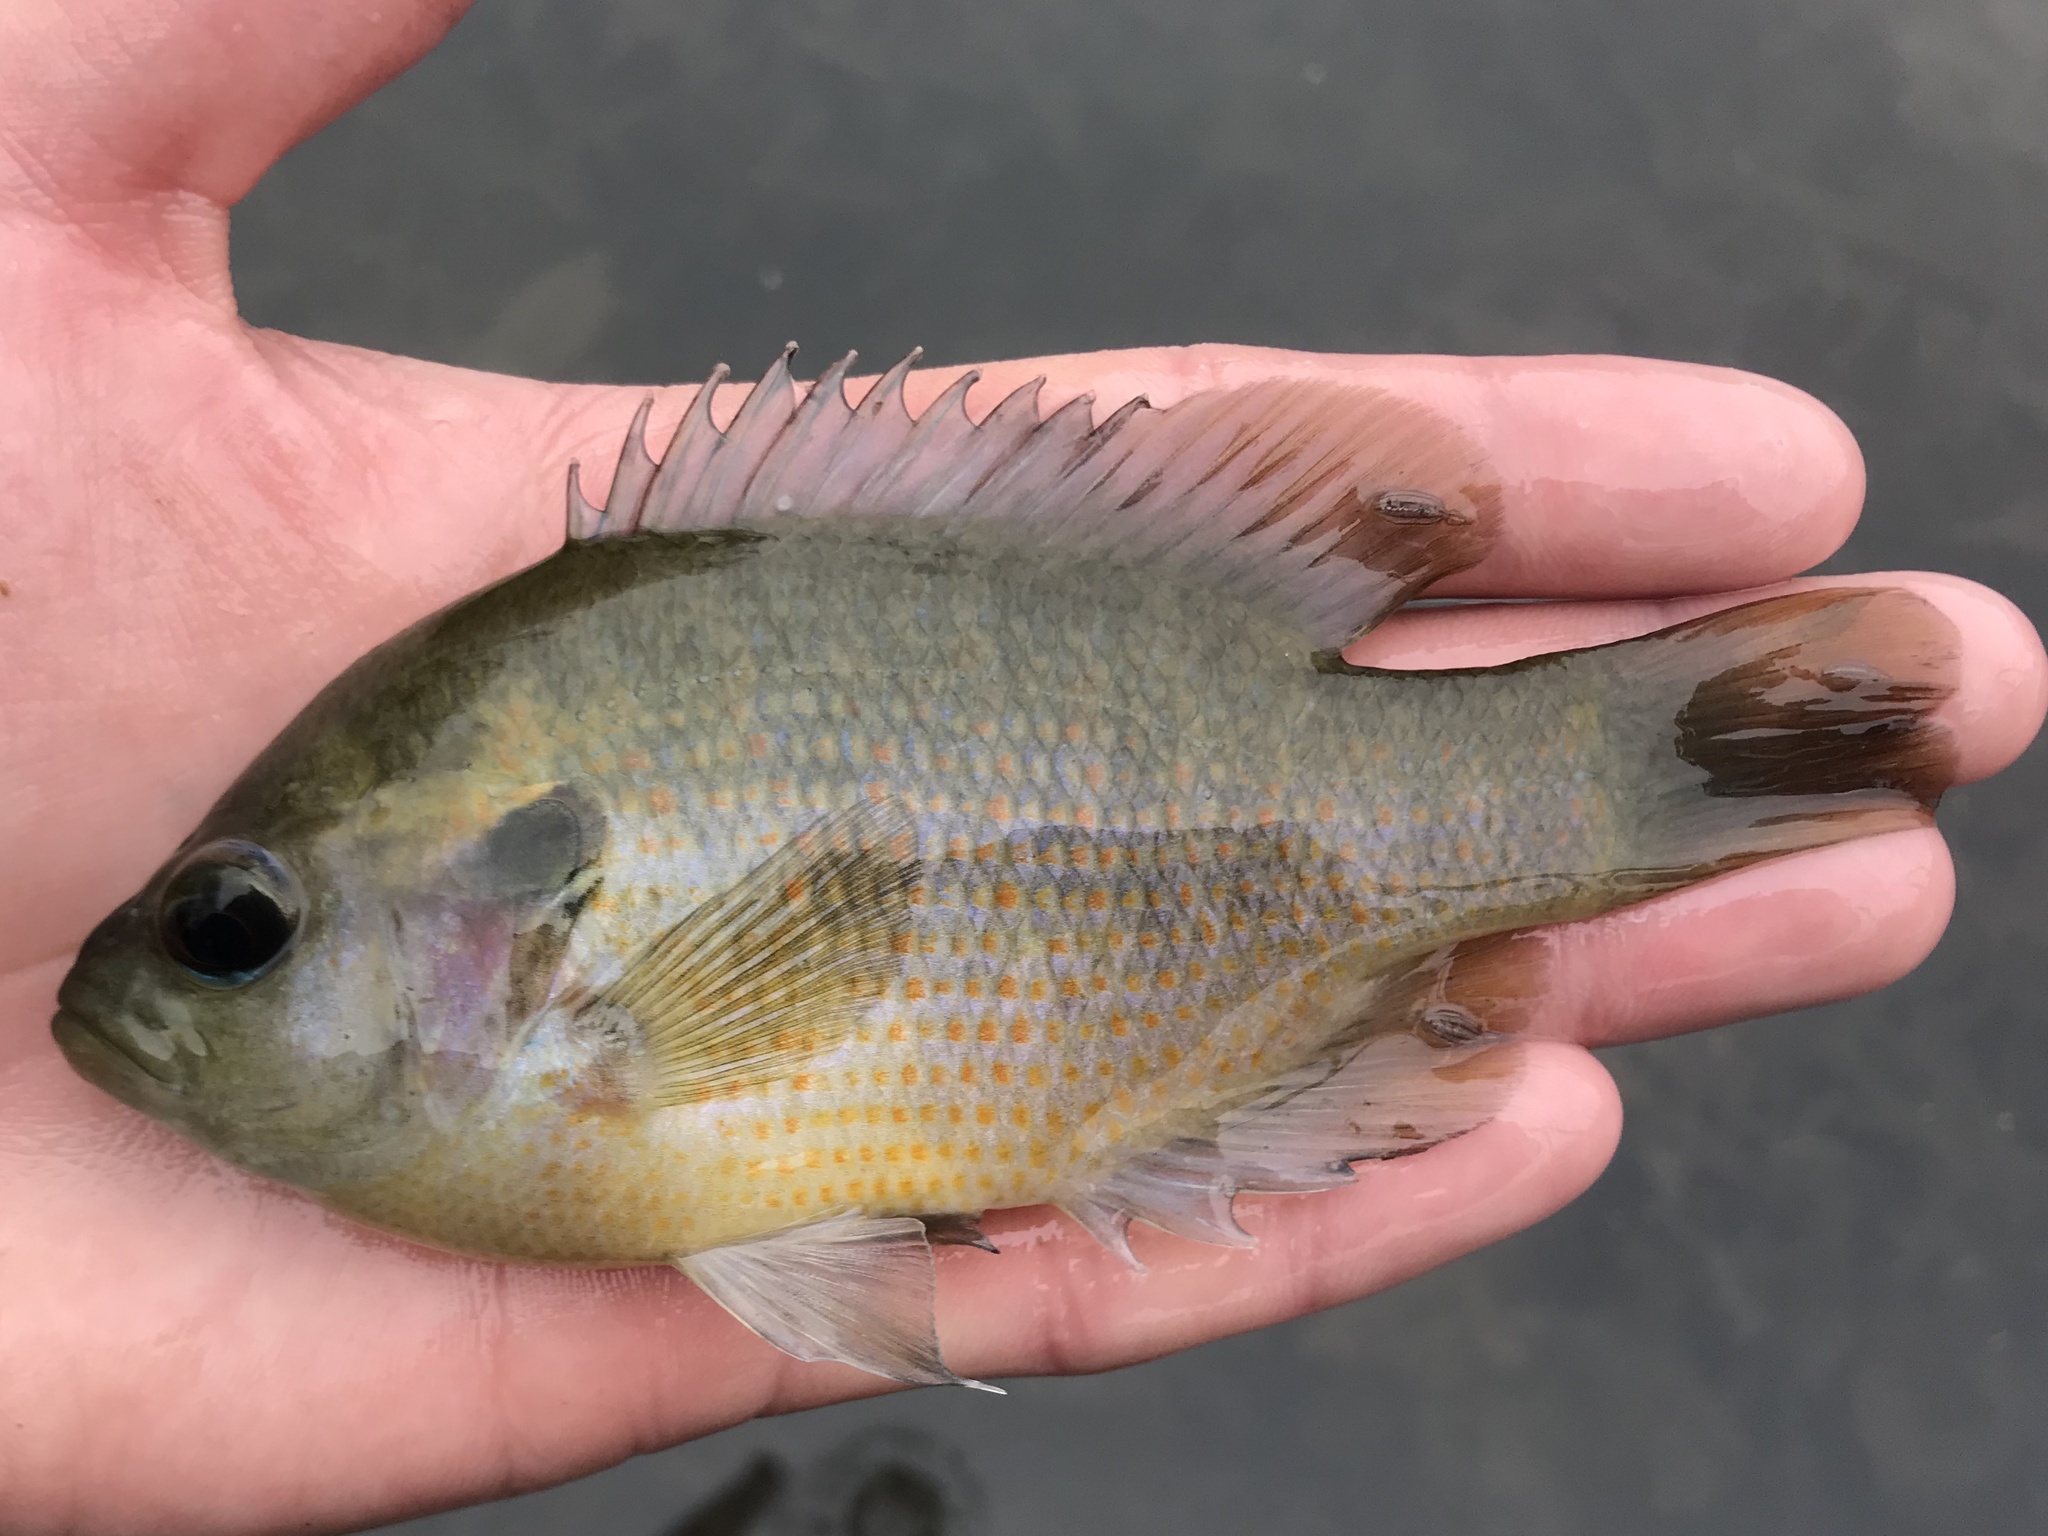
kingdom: Animalia
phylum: Chordata
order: Perciformes
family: Centrarchidae
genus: Lepomis
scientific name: Lepomis miniatus
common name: Redspotted sunfish
